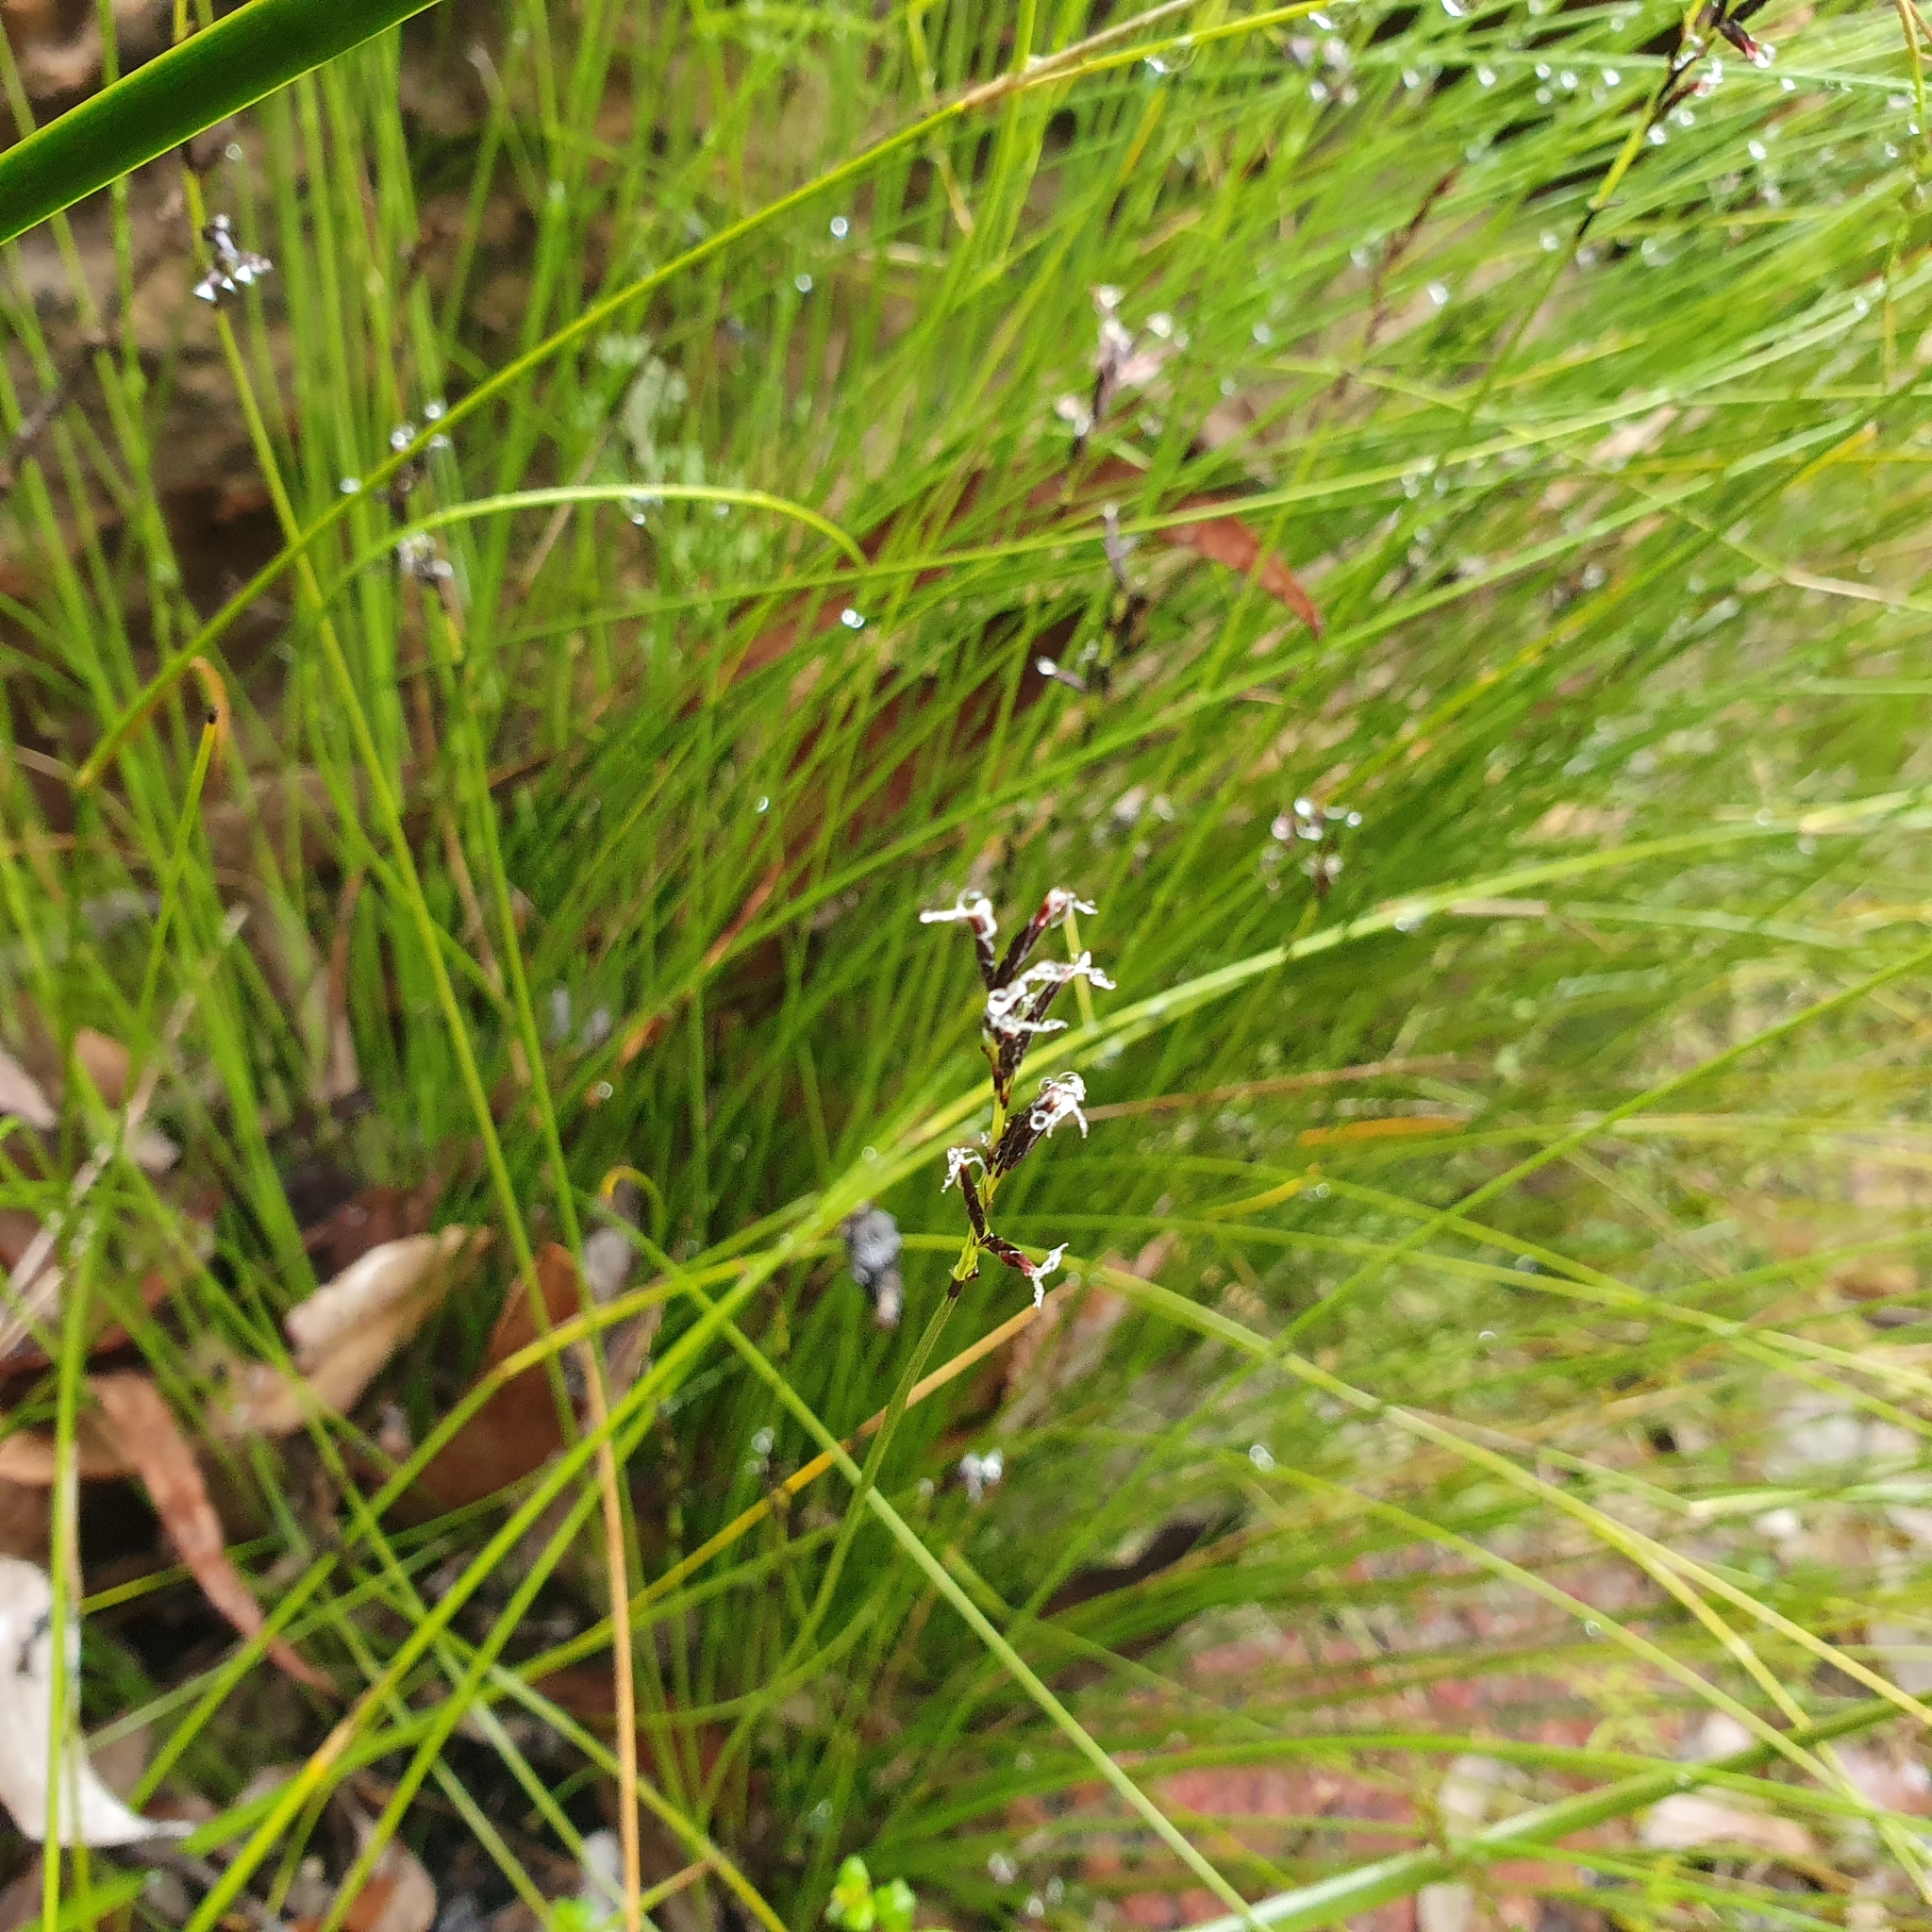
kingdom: Plantae
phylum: Tracheophyta
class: Liliopsida
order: Poales
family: Cyperaceae
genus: Schoenus
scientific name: Schoenus melanostachys
